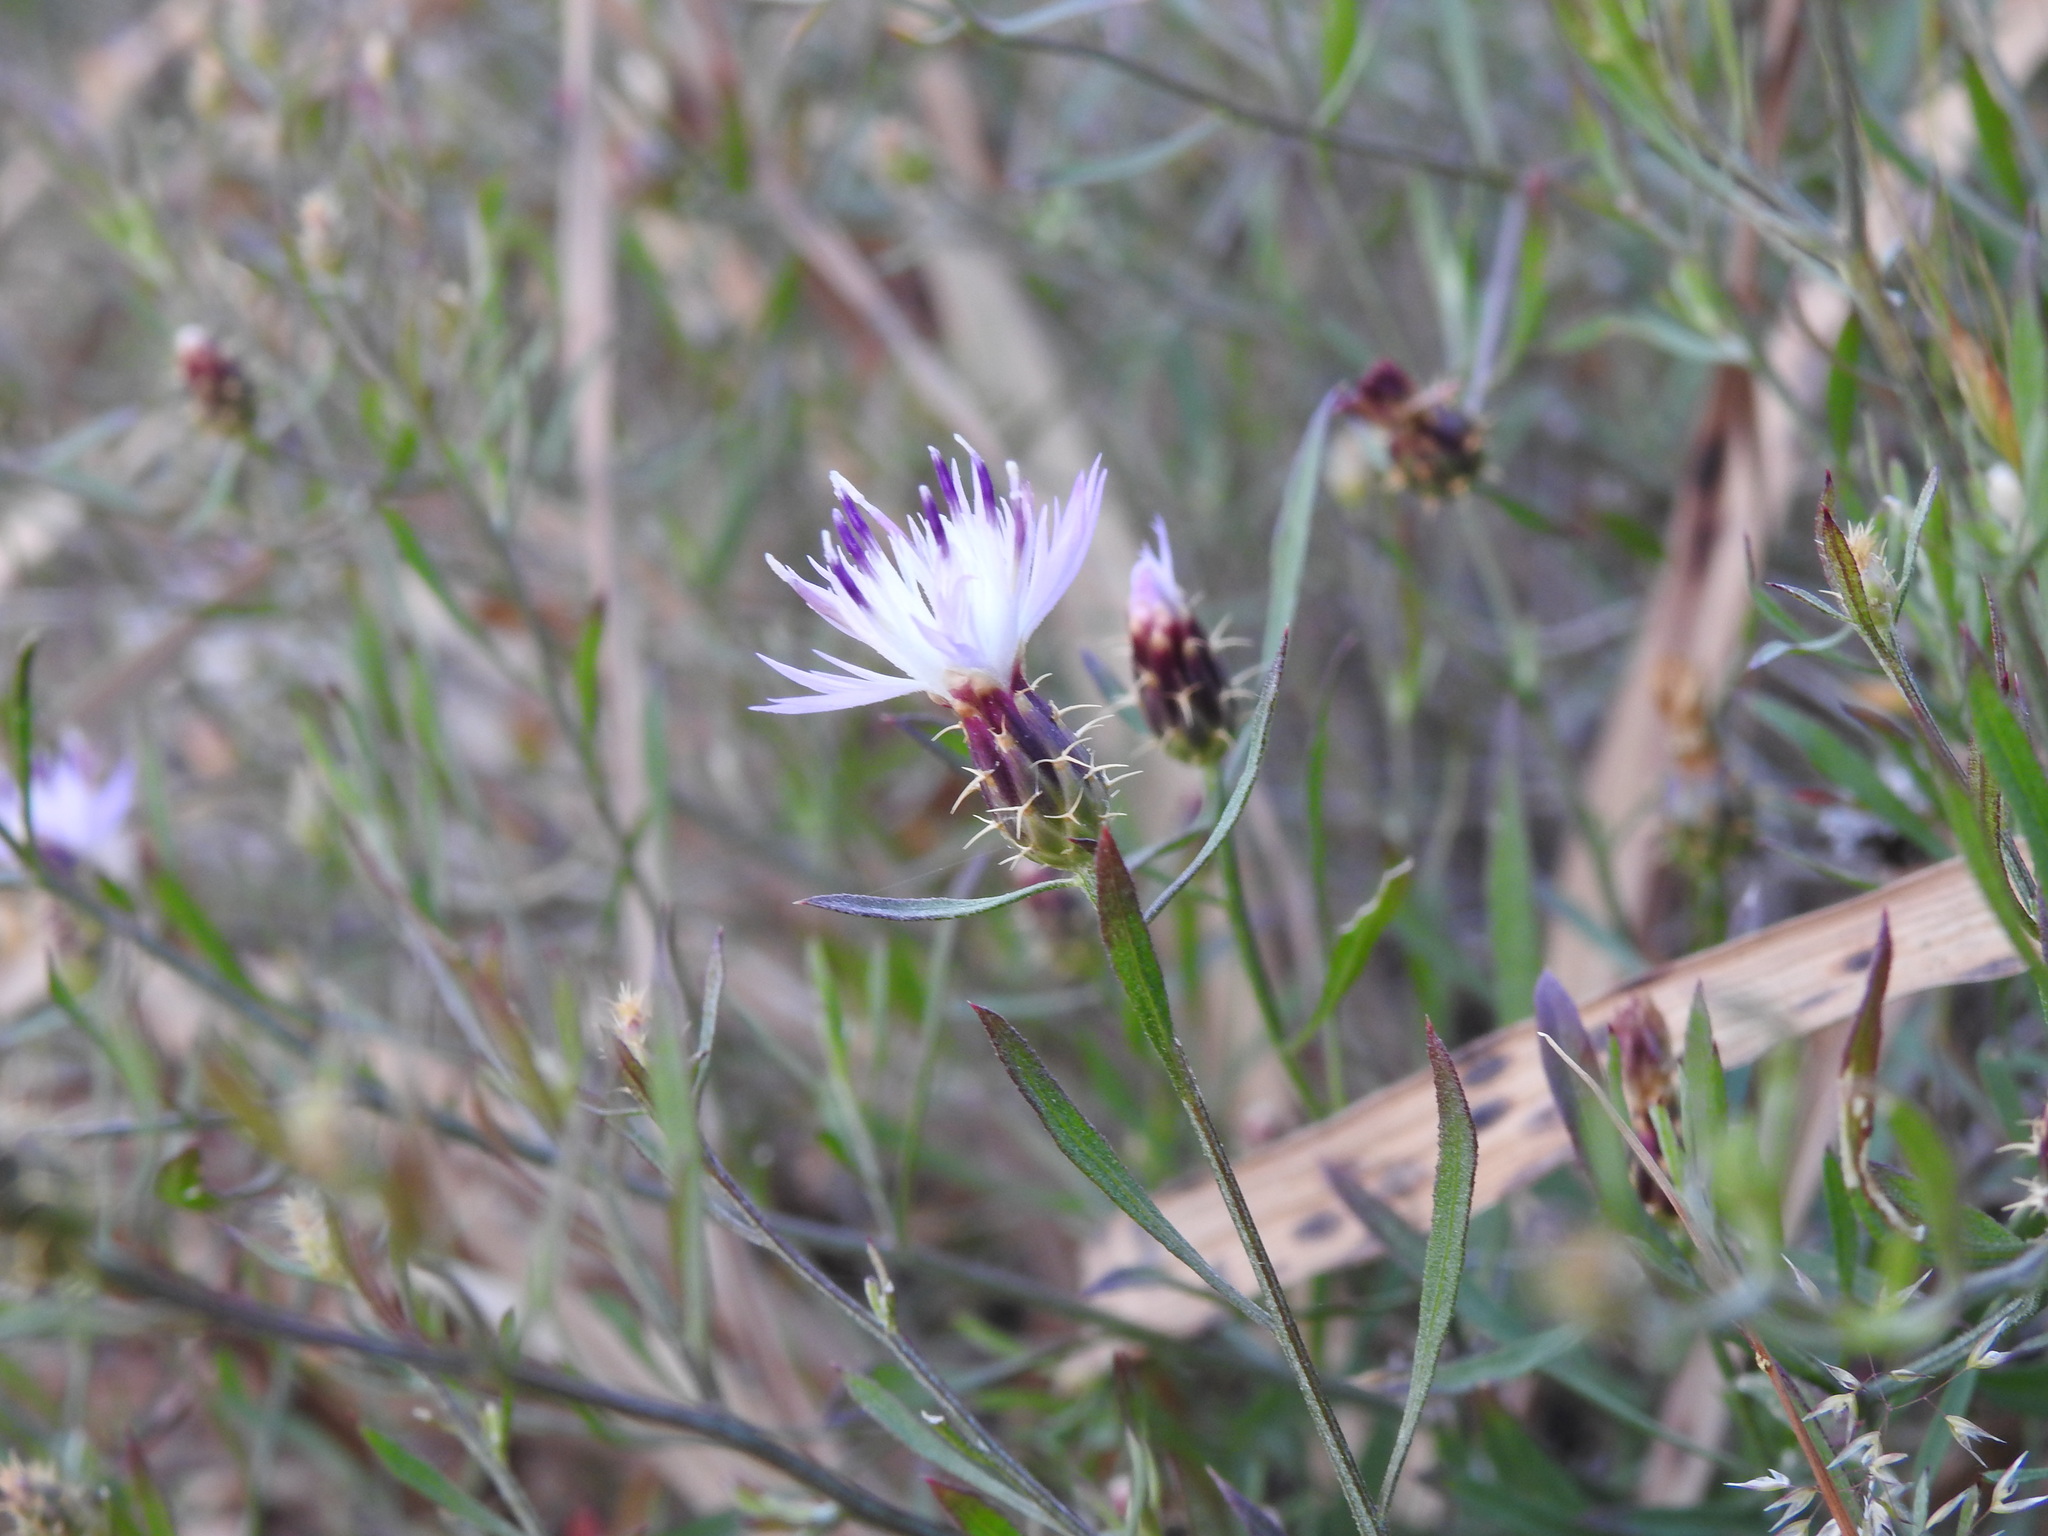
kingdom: Plantae
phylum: Tracheophyta
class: Magnoliopsida
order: Asterales
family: Asteraceae
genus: Centaurea
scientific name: Centaurea aspera
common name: Rough star-thistle
